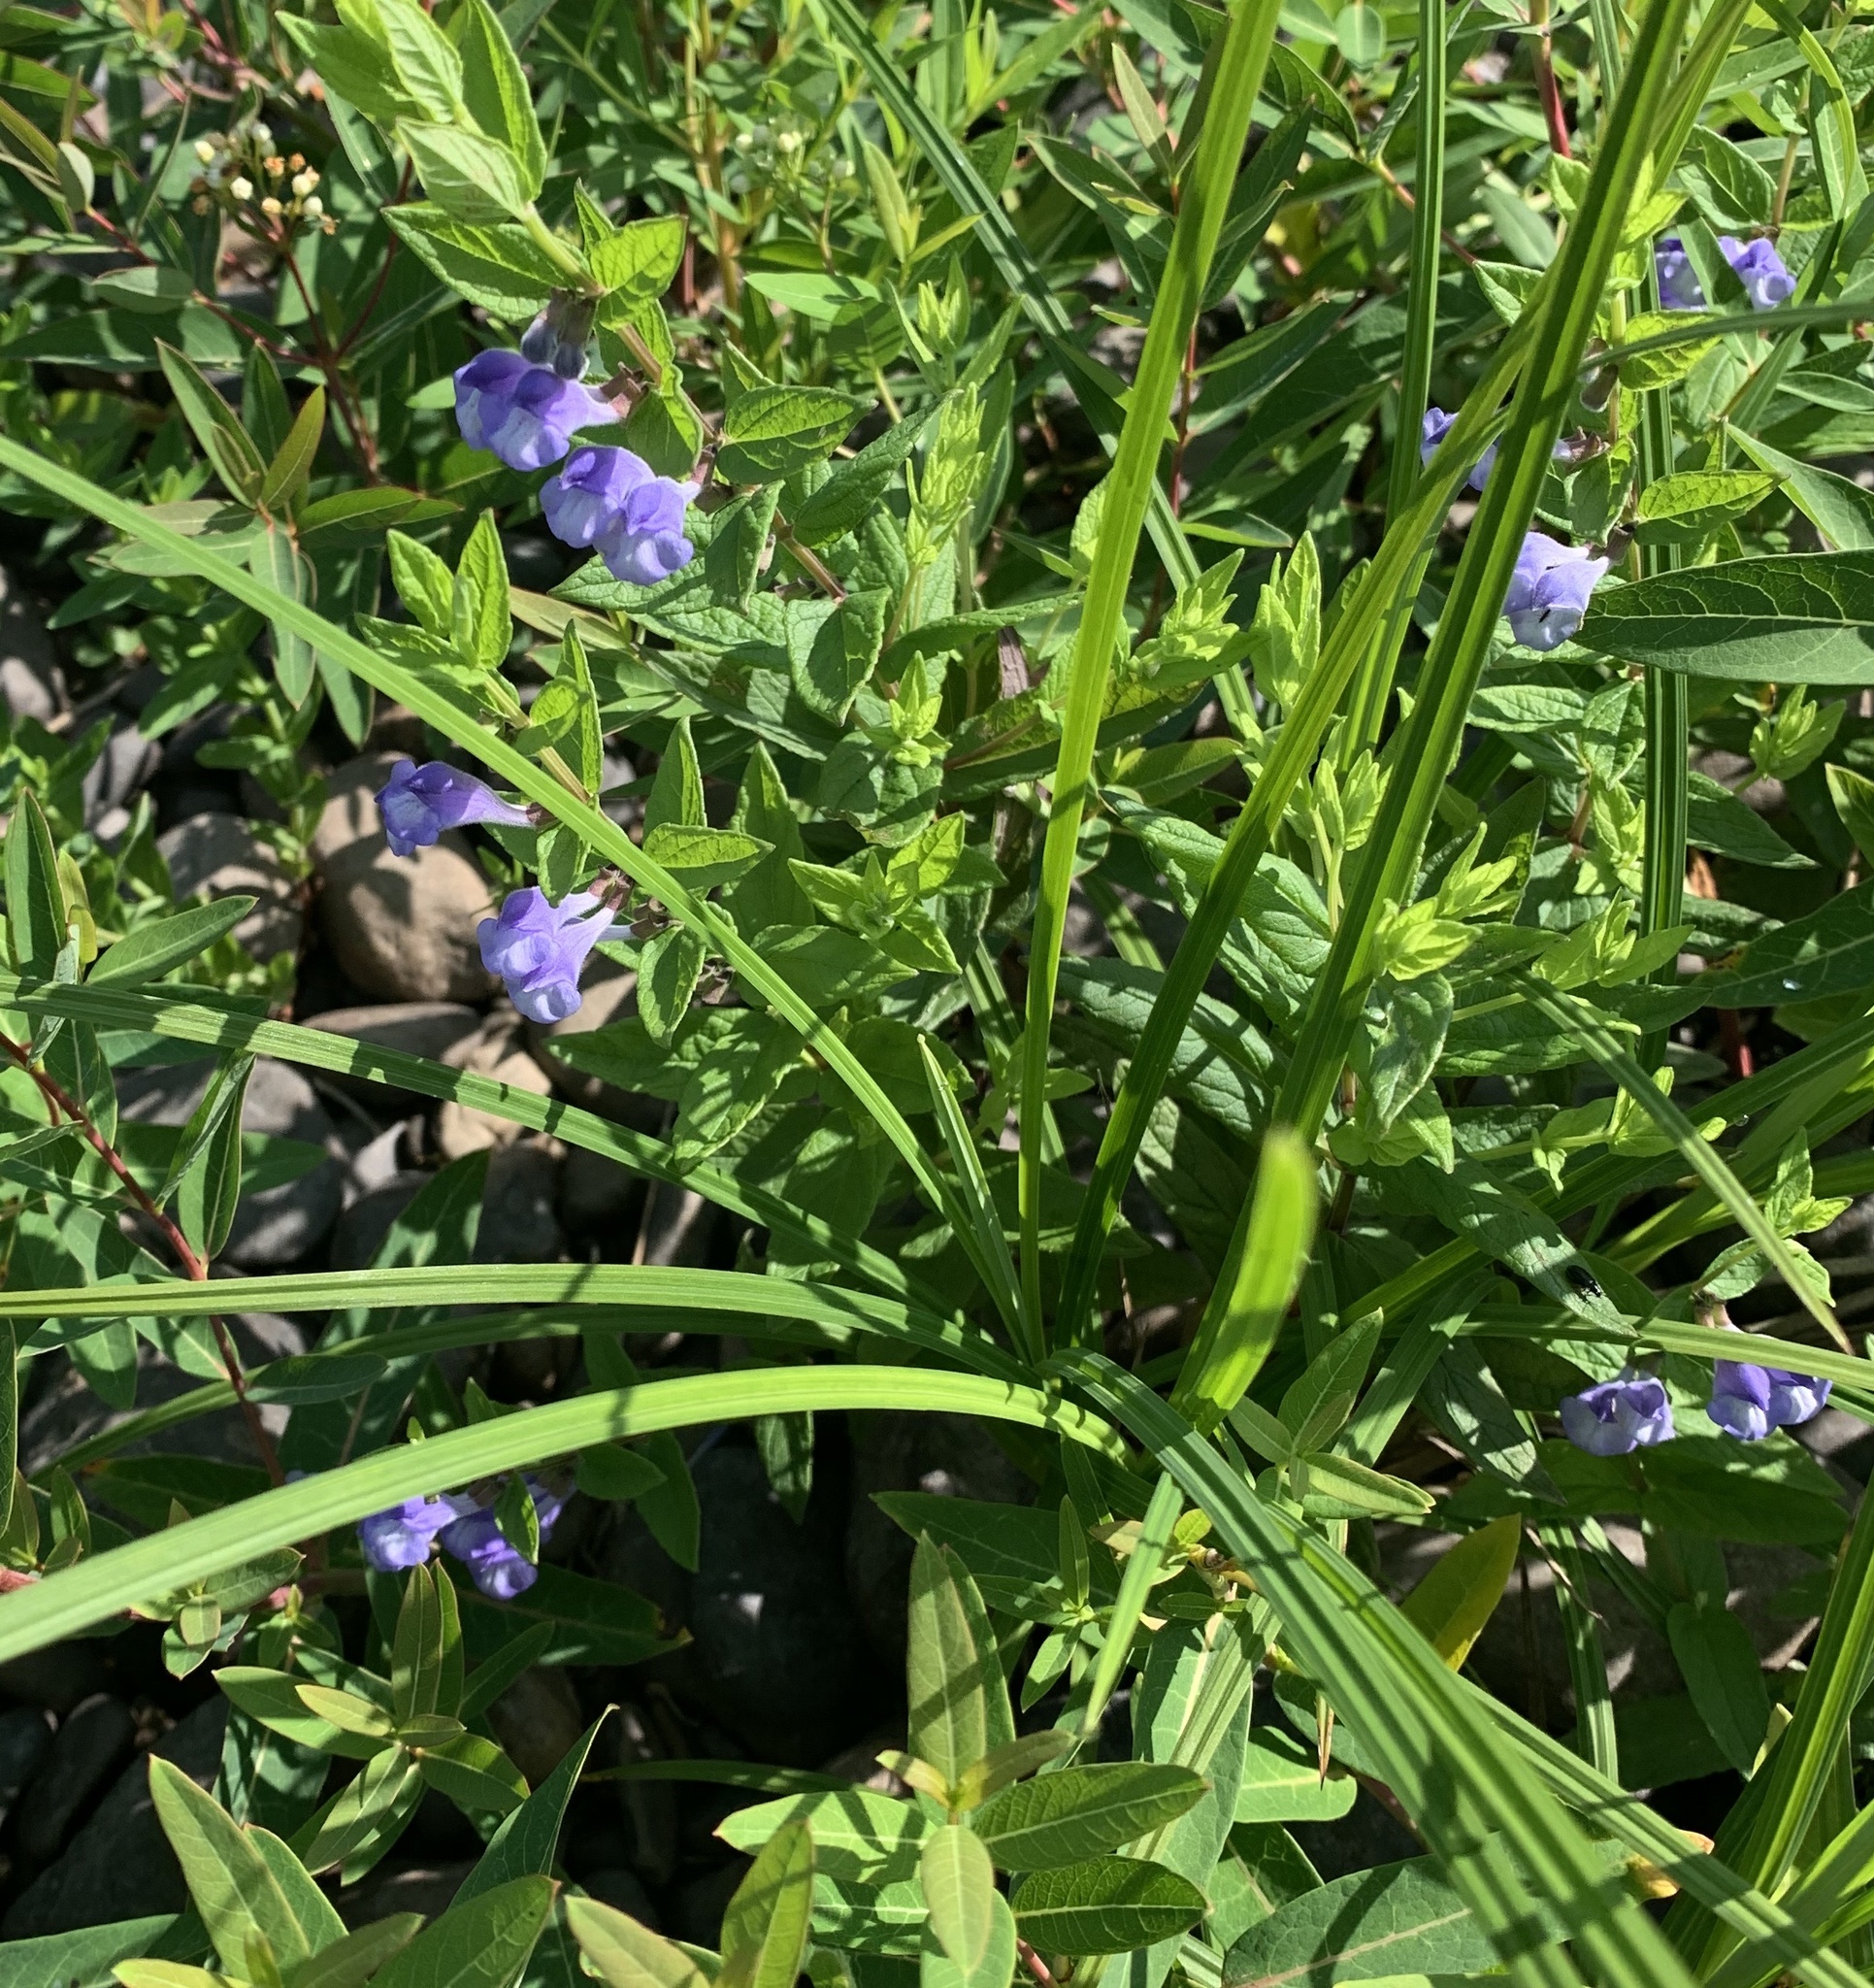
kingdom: Plantae
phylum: Tracheophyta
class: Magnoliopsida
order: Lamiales
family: Lamiaceae
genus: Scutellaria
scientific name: Scutellaria galericulata
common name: Skullcap
